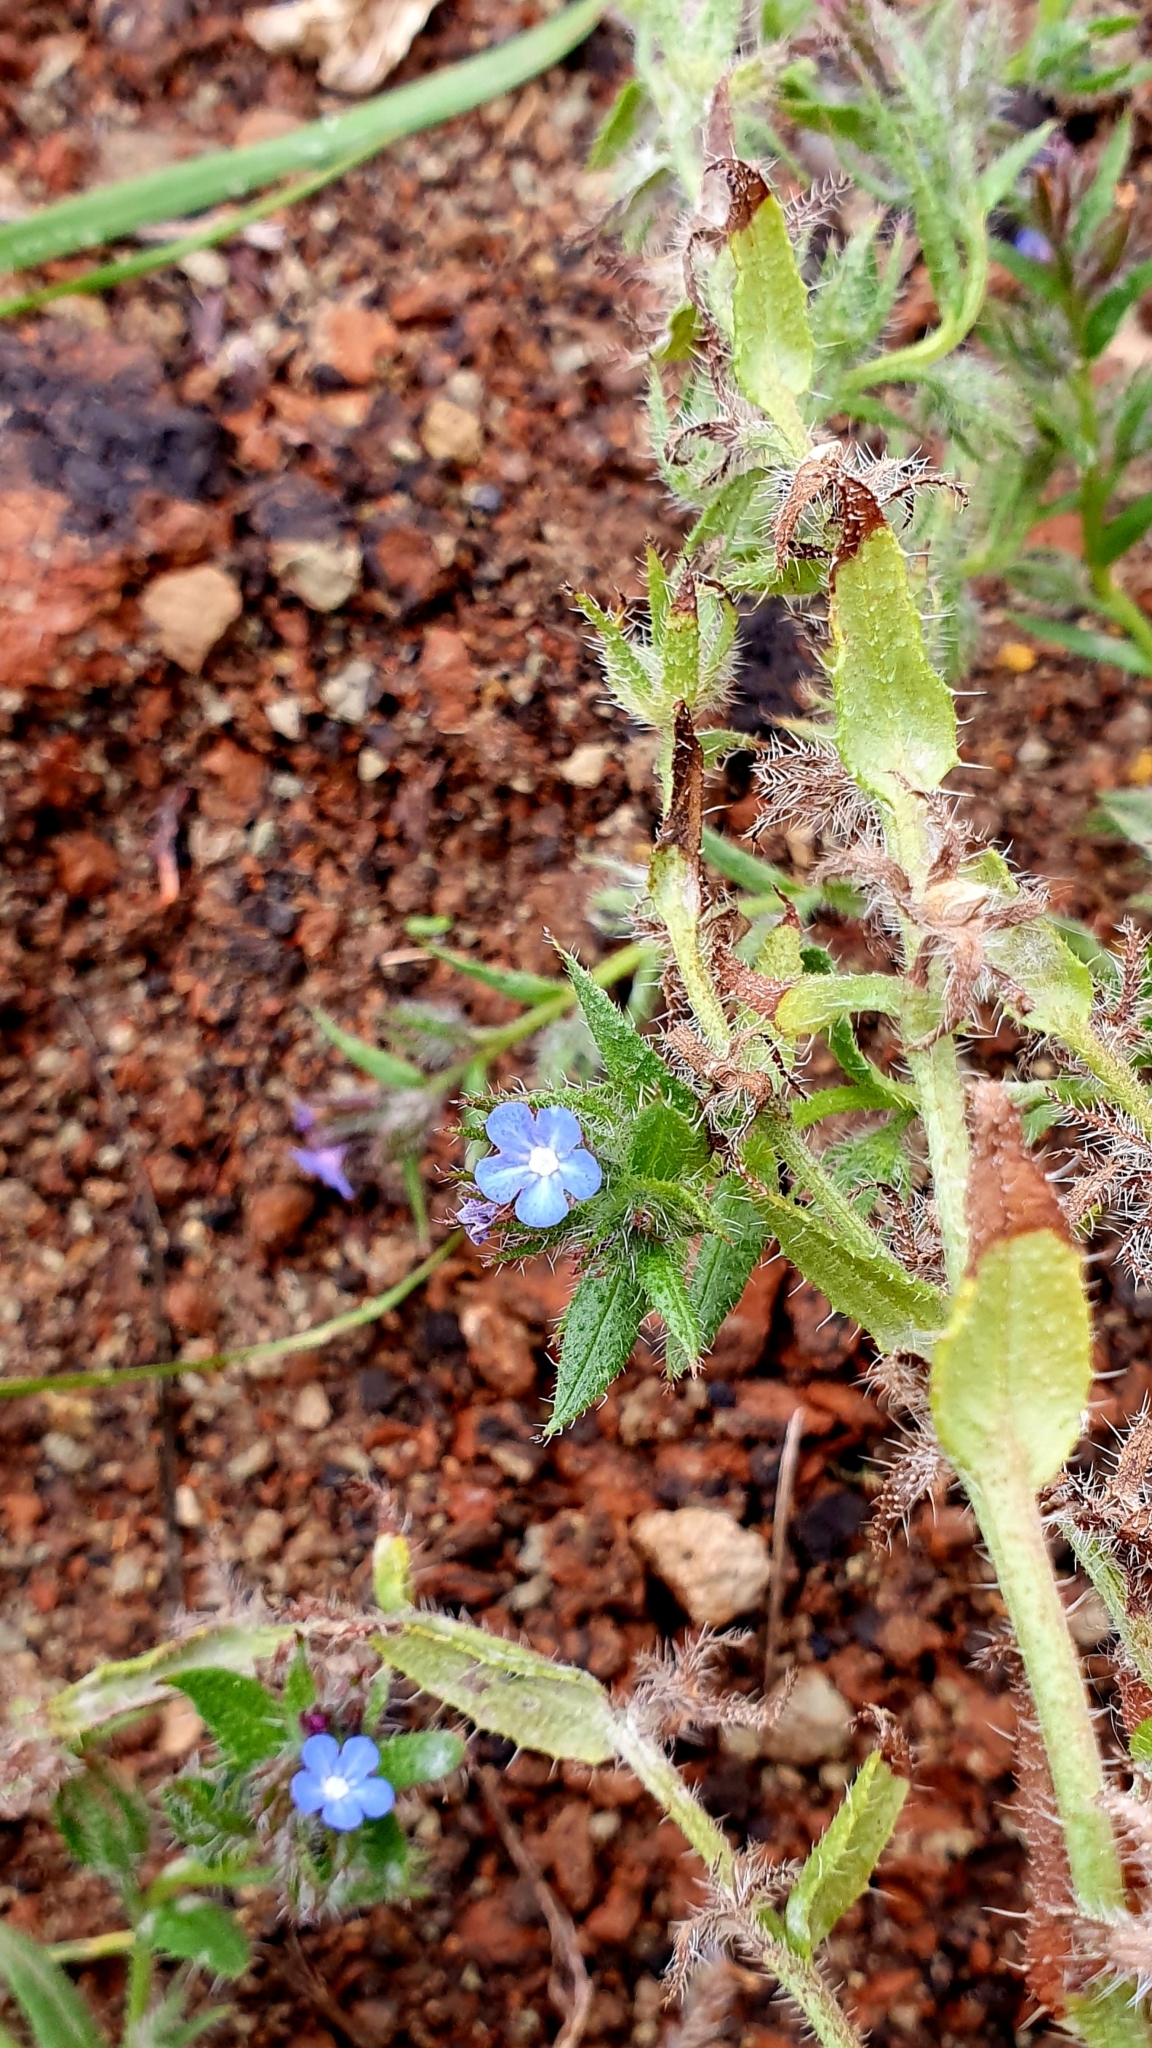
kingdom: Plantae
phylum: Tracheophyta
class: Magnoliopsida
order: Boraginales
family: Boraginaceae
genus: Lycopsis
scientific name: Lycopsis arvensis
